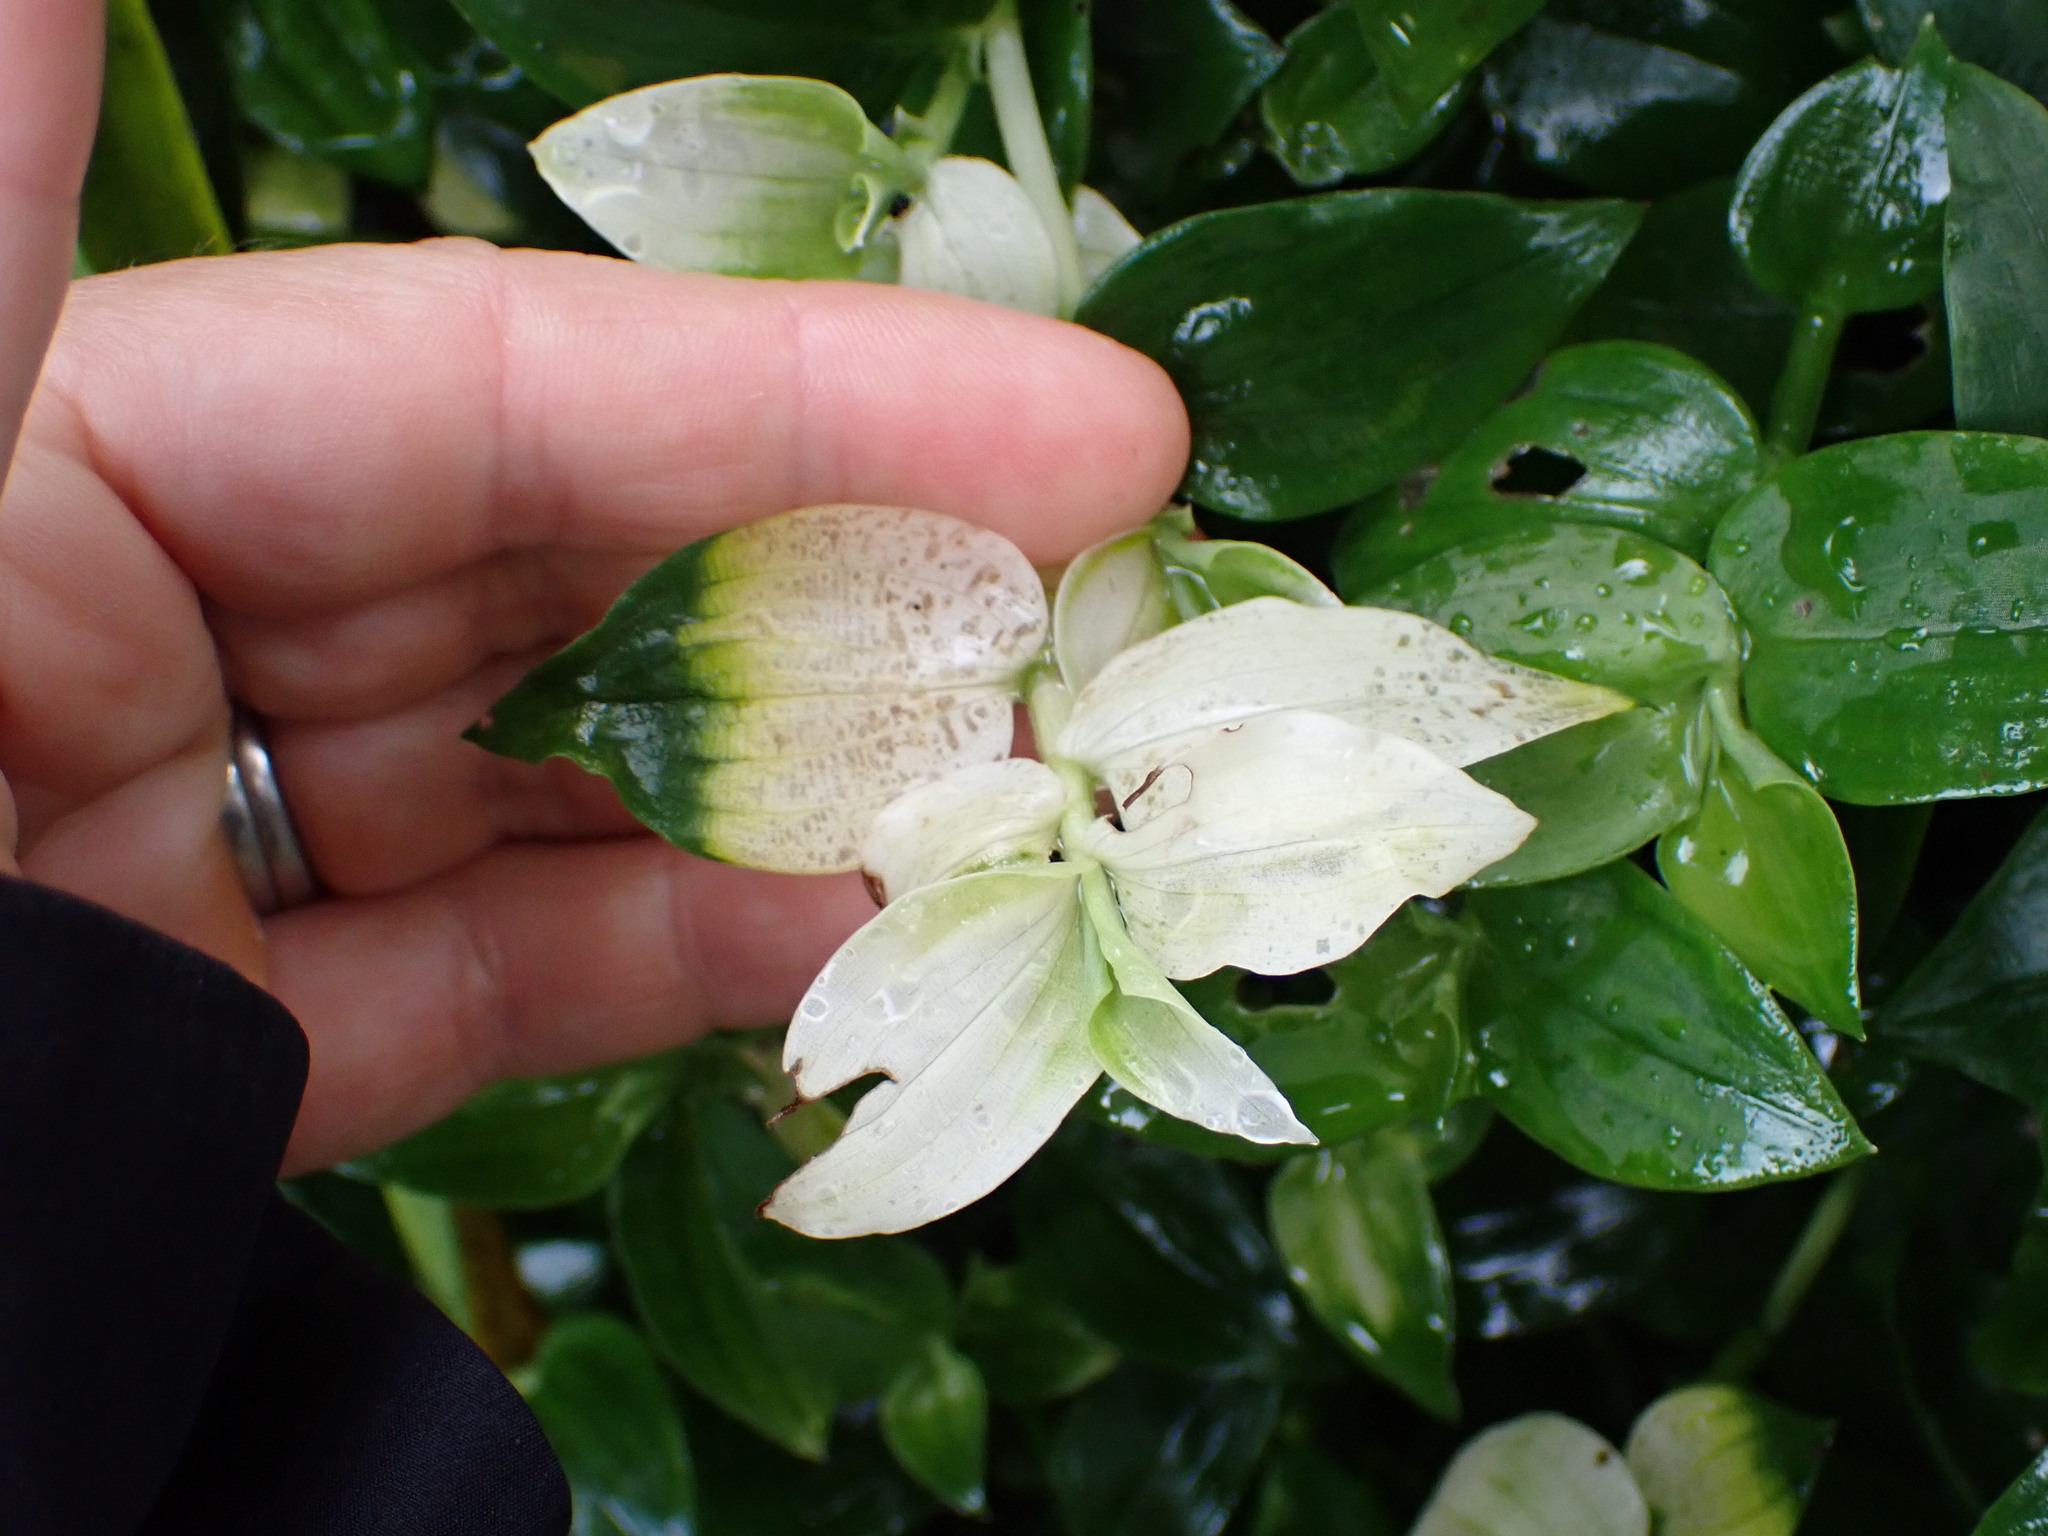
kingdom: Plantae
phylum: Tracheophyta
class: Liliopsida
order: Commelinales
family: Commelinaceae
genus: Tradescantia
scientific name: Tradescantia fluminensis
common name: Wandering-jew
